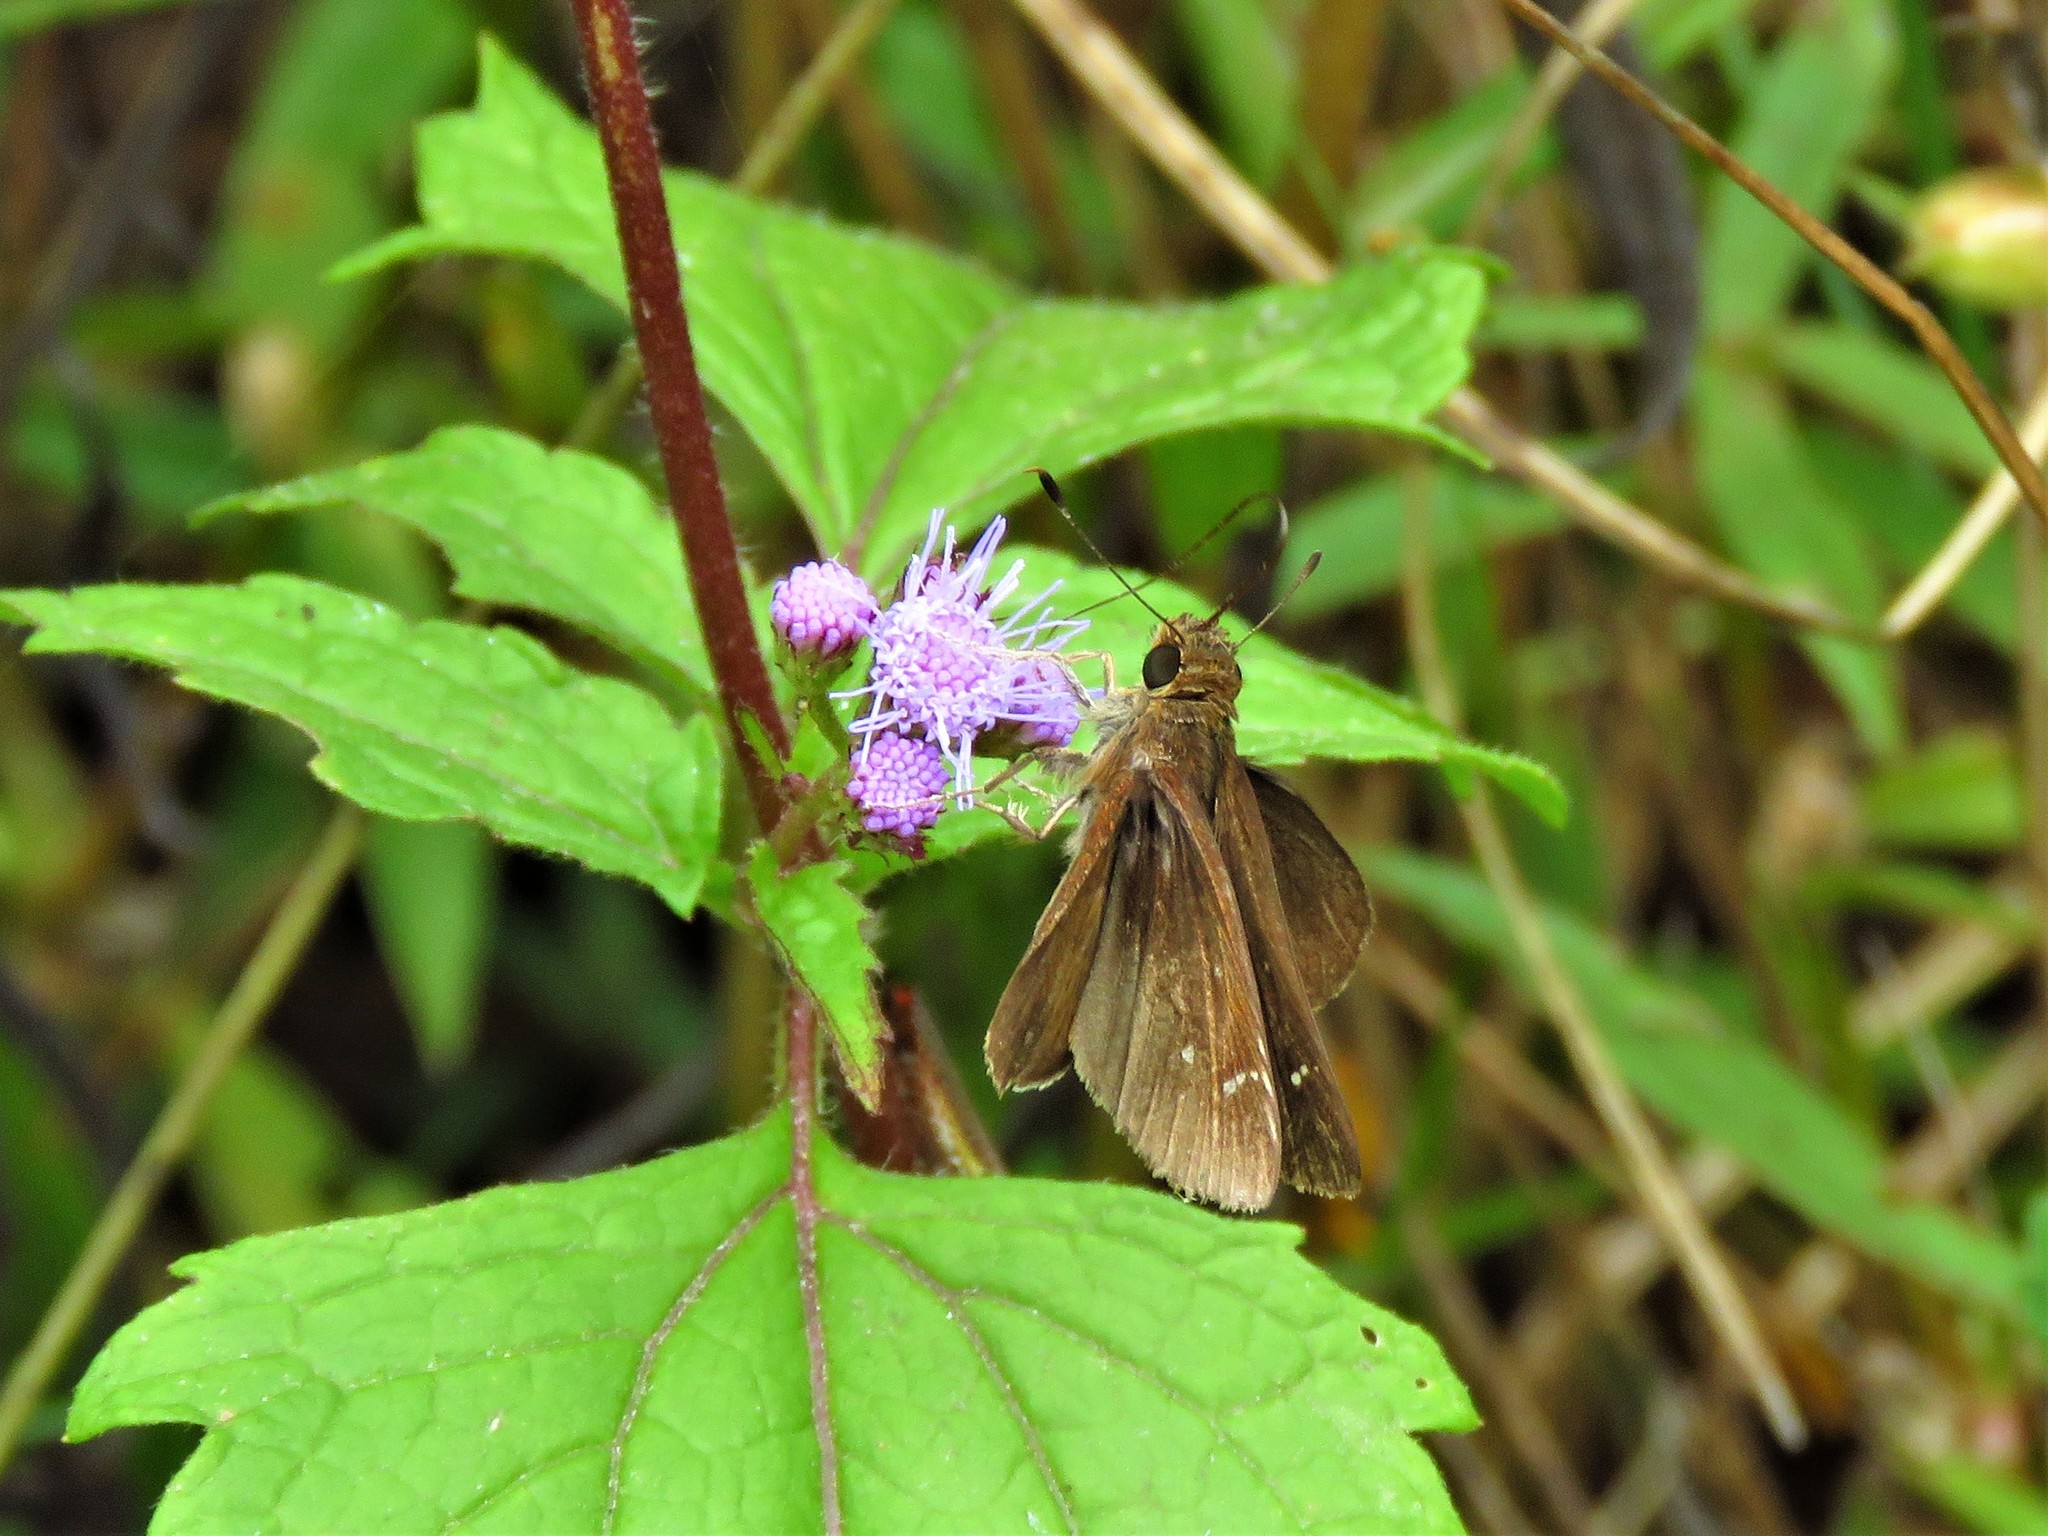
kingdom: Animalia
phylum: Arthropoda
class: Insecta
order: Lepidoptera
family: Hesperiidae
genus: Lerema
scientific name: Lerema accius
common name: Clouded skipper
